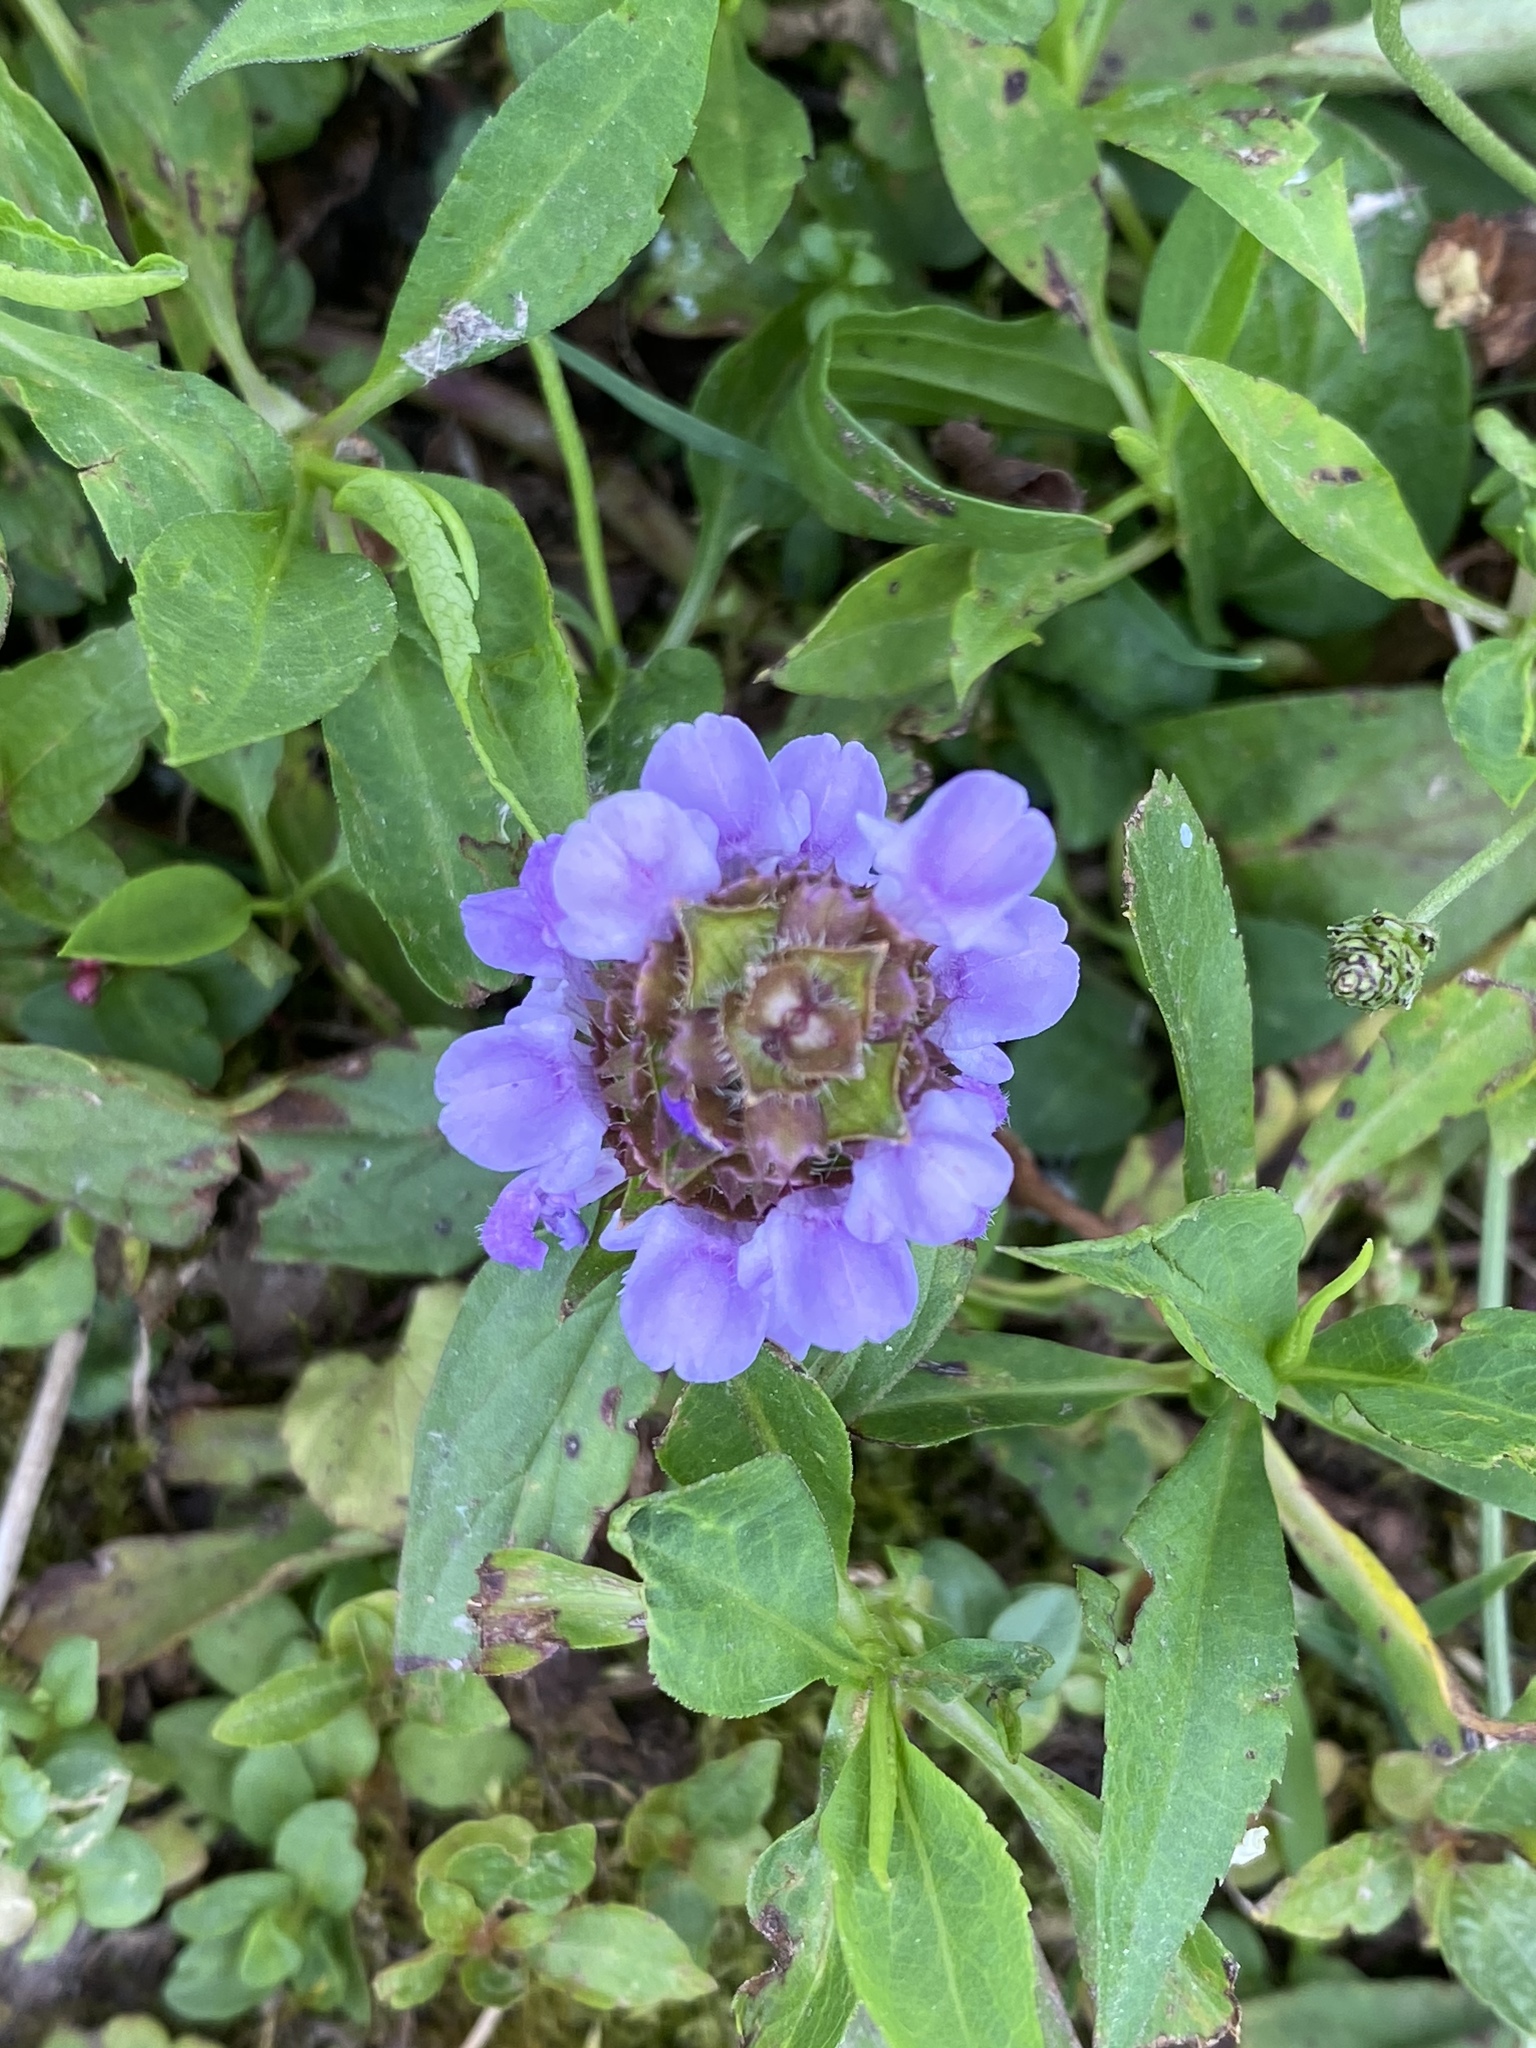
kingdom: Plantae
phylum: Tracheophyta
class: Magnoliopsida
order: Lamiales
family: Lamiaceae
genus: Prunella
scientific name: Prunella vulgaris
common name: Heal-all
